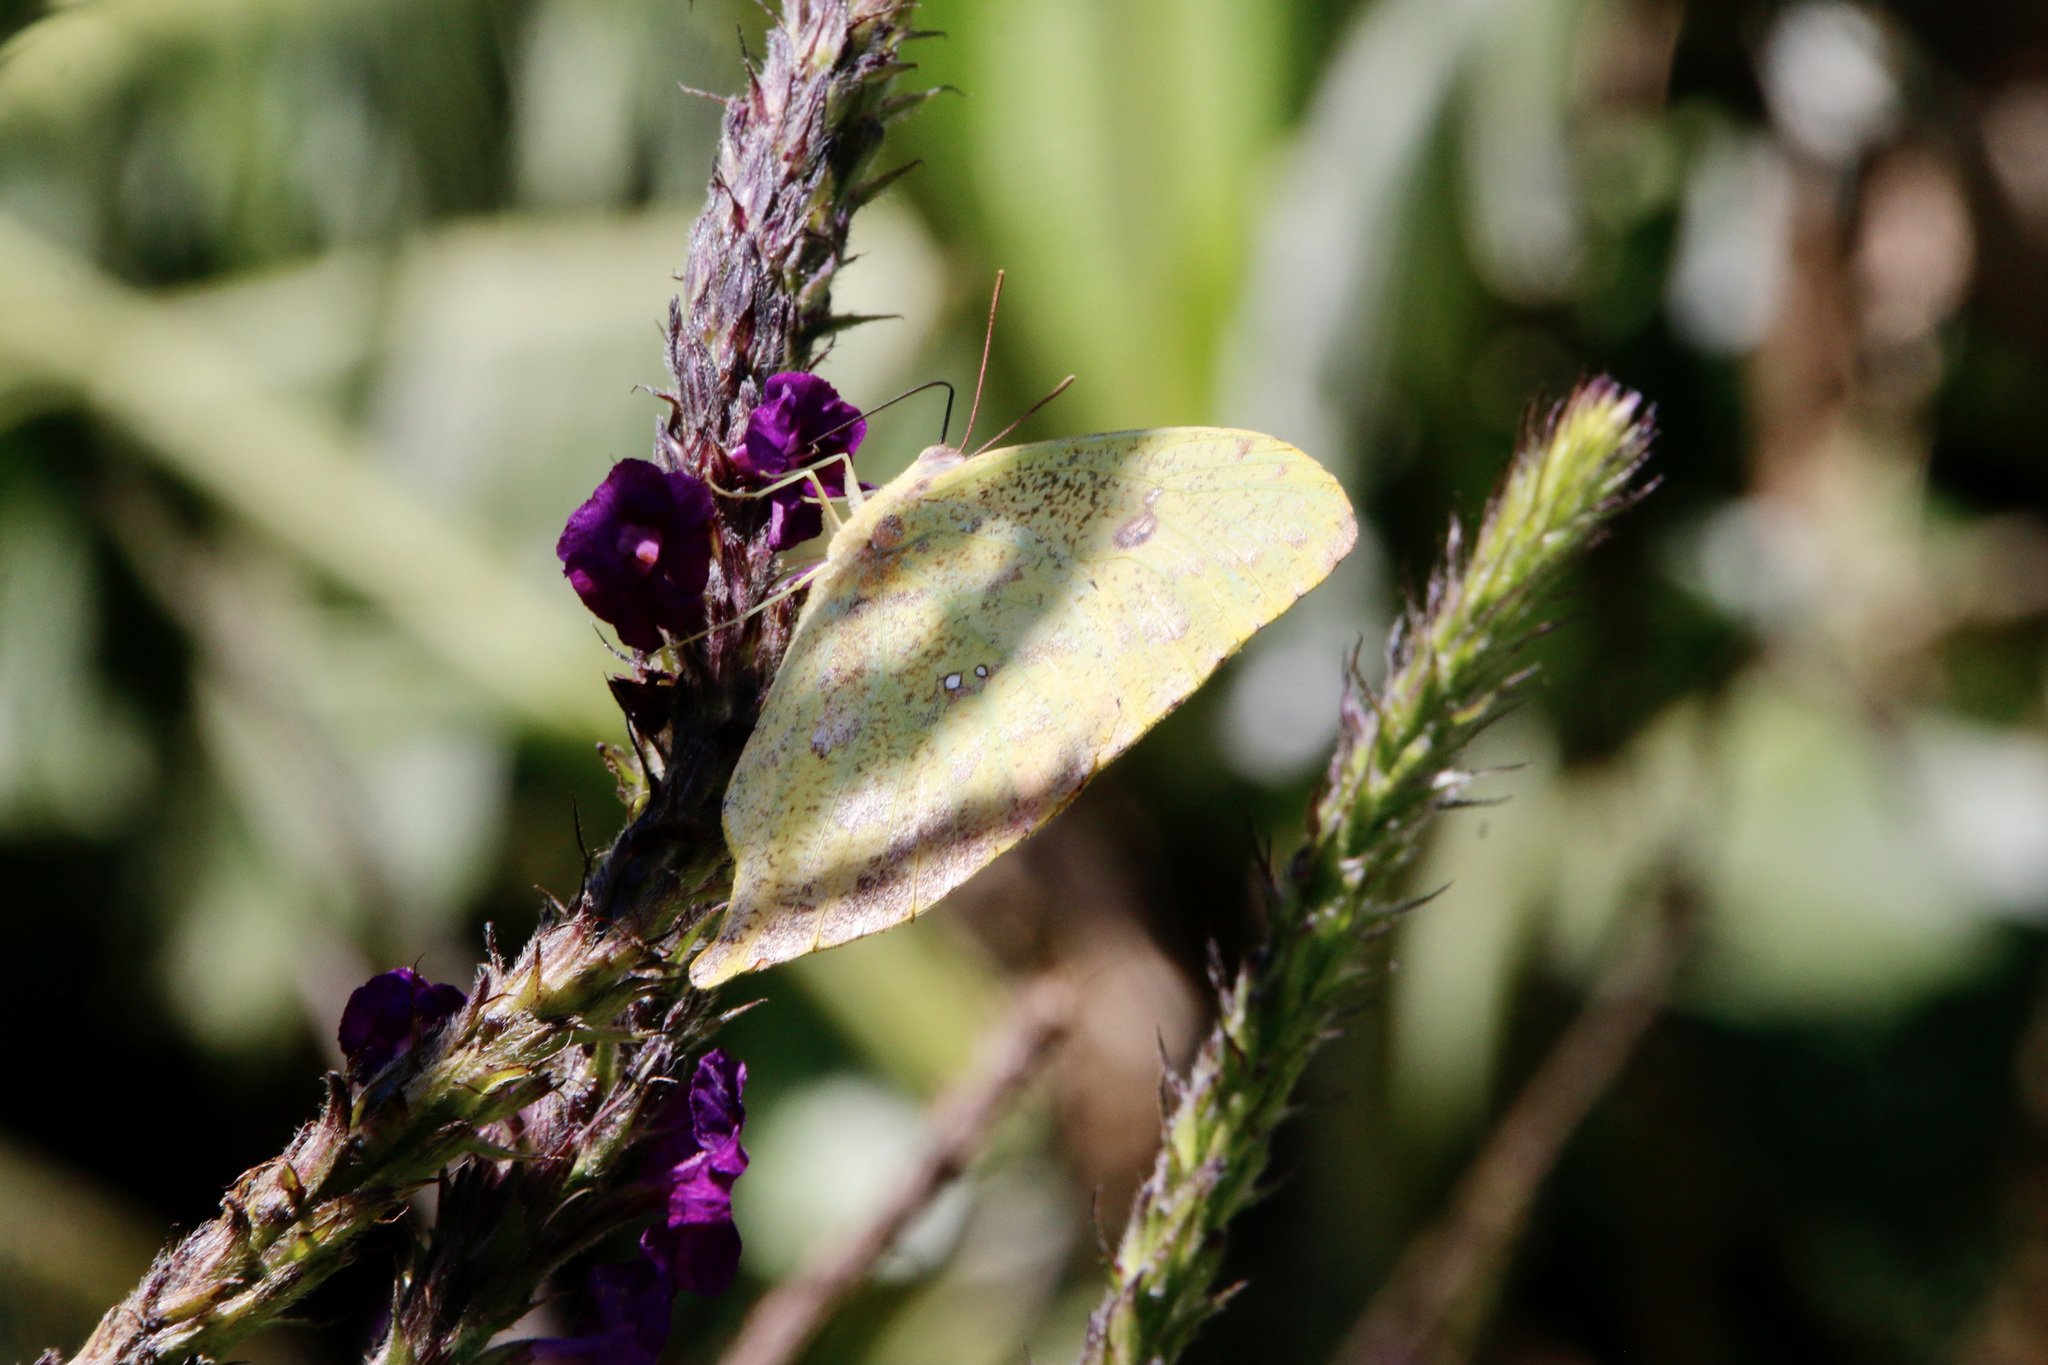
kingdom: Animalia
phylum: Arthropoda
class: Insecta
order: Lepidoptera
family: Pieridae
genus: Phoebis
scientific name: Phoebis neocypris
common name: Tailed sulphur
